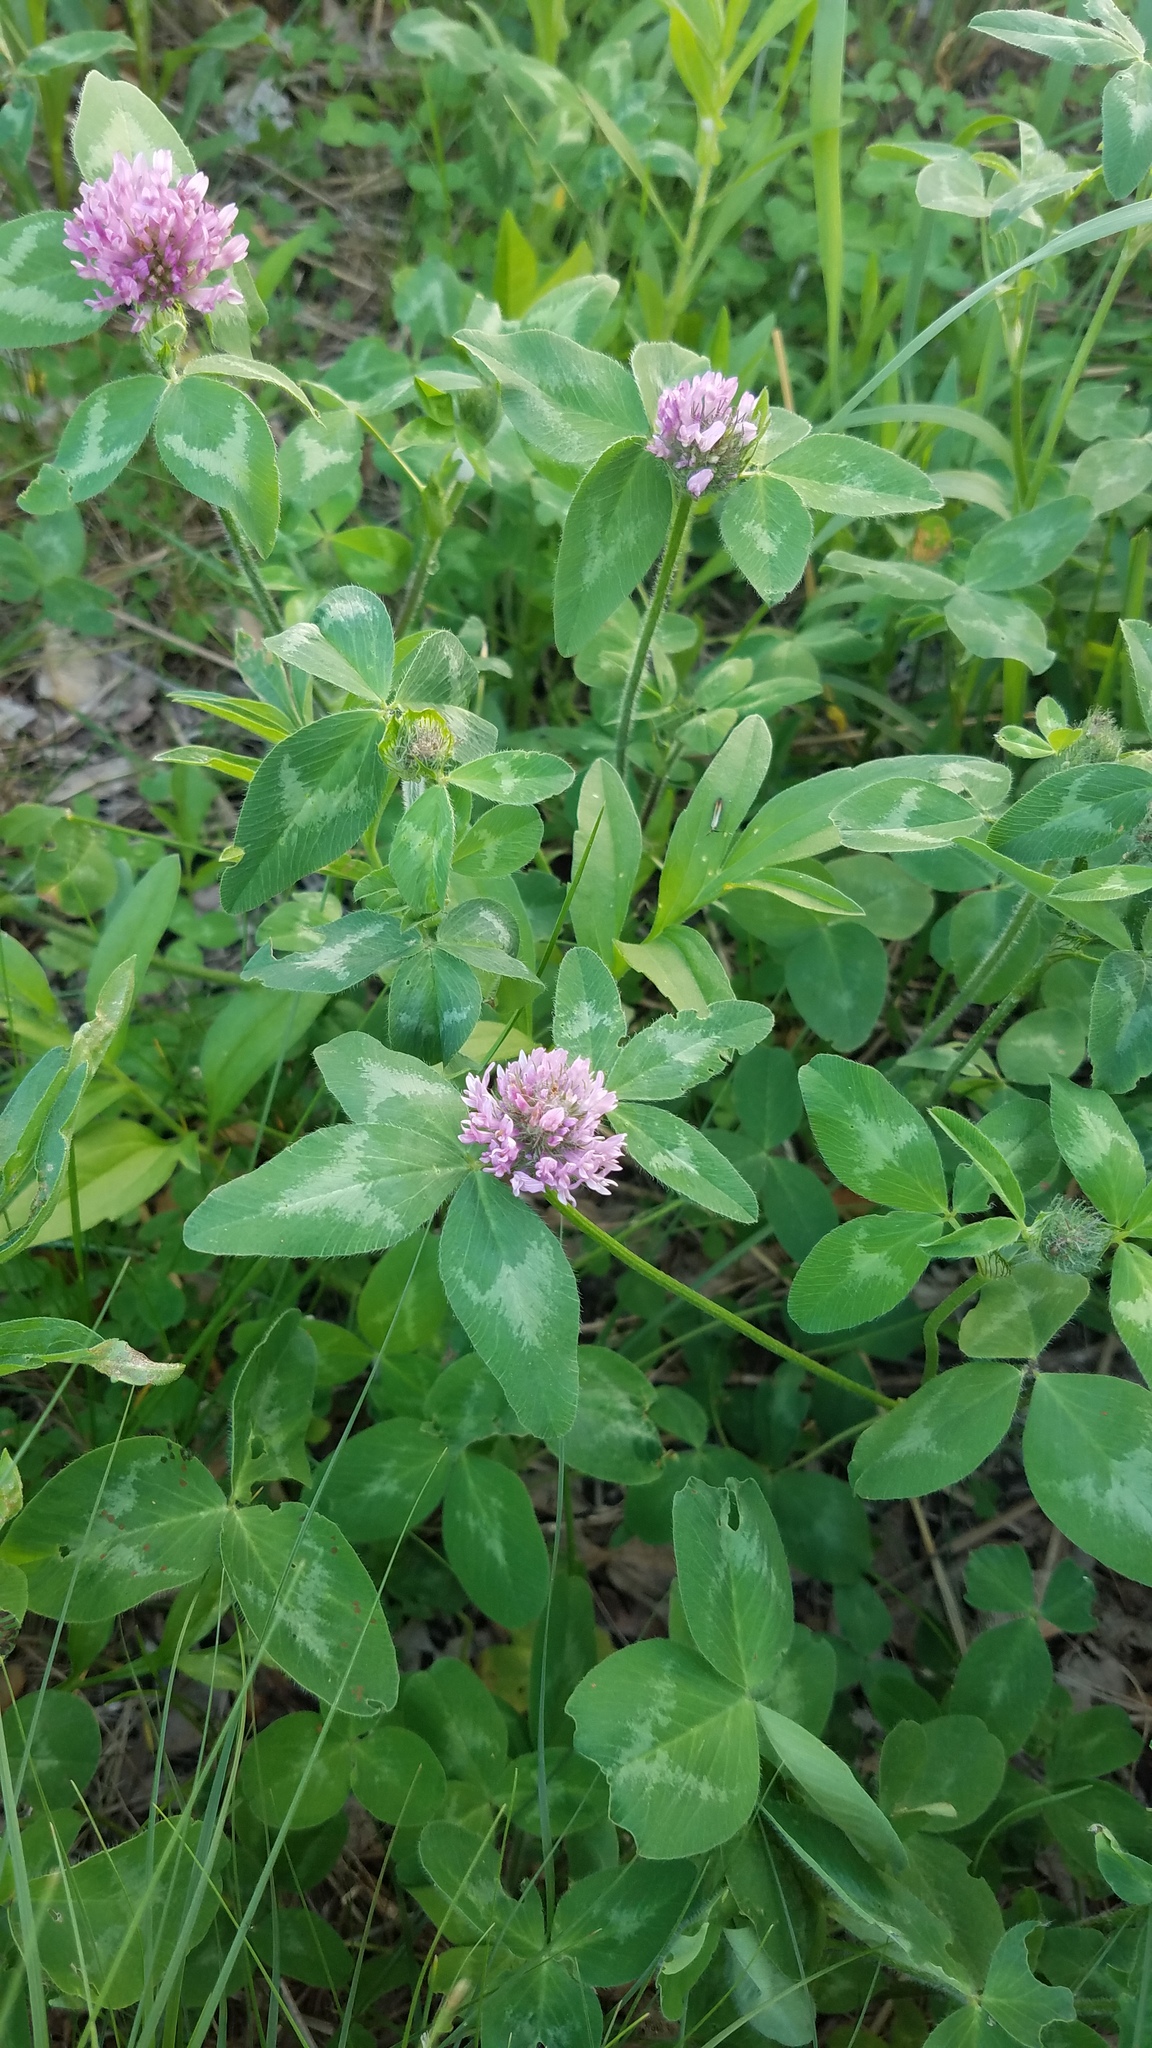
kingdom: Plantae
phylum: Tracheophyta
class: Magnoliopsida
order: Fabales
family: Fabaceae
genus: Trifolium
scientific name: Trifolium pratense
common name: Red clover
